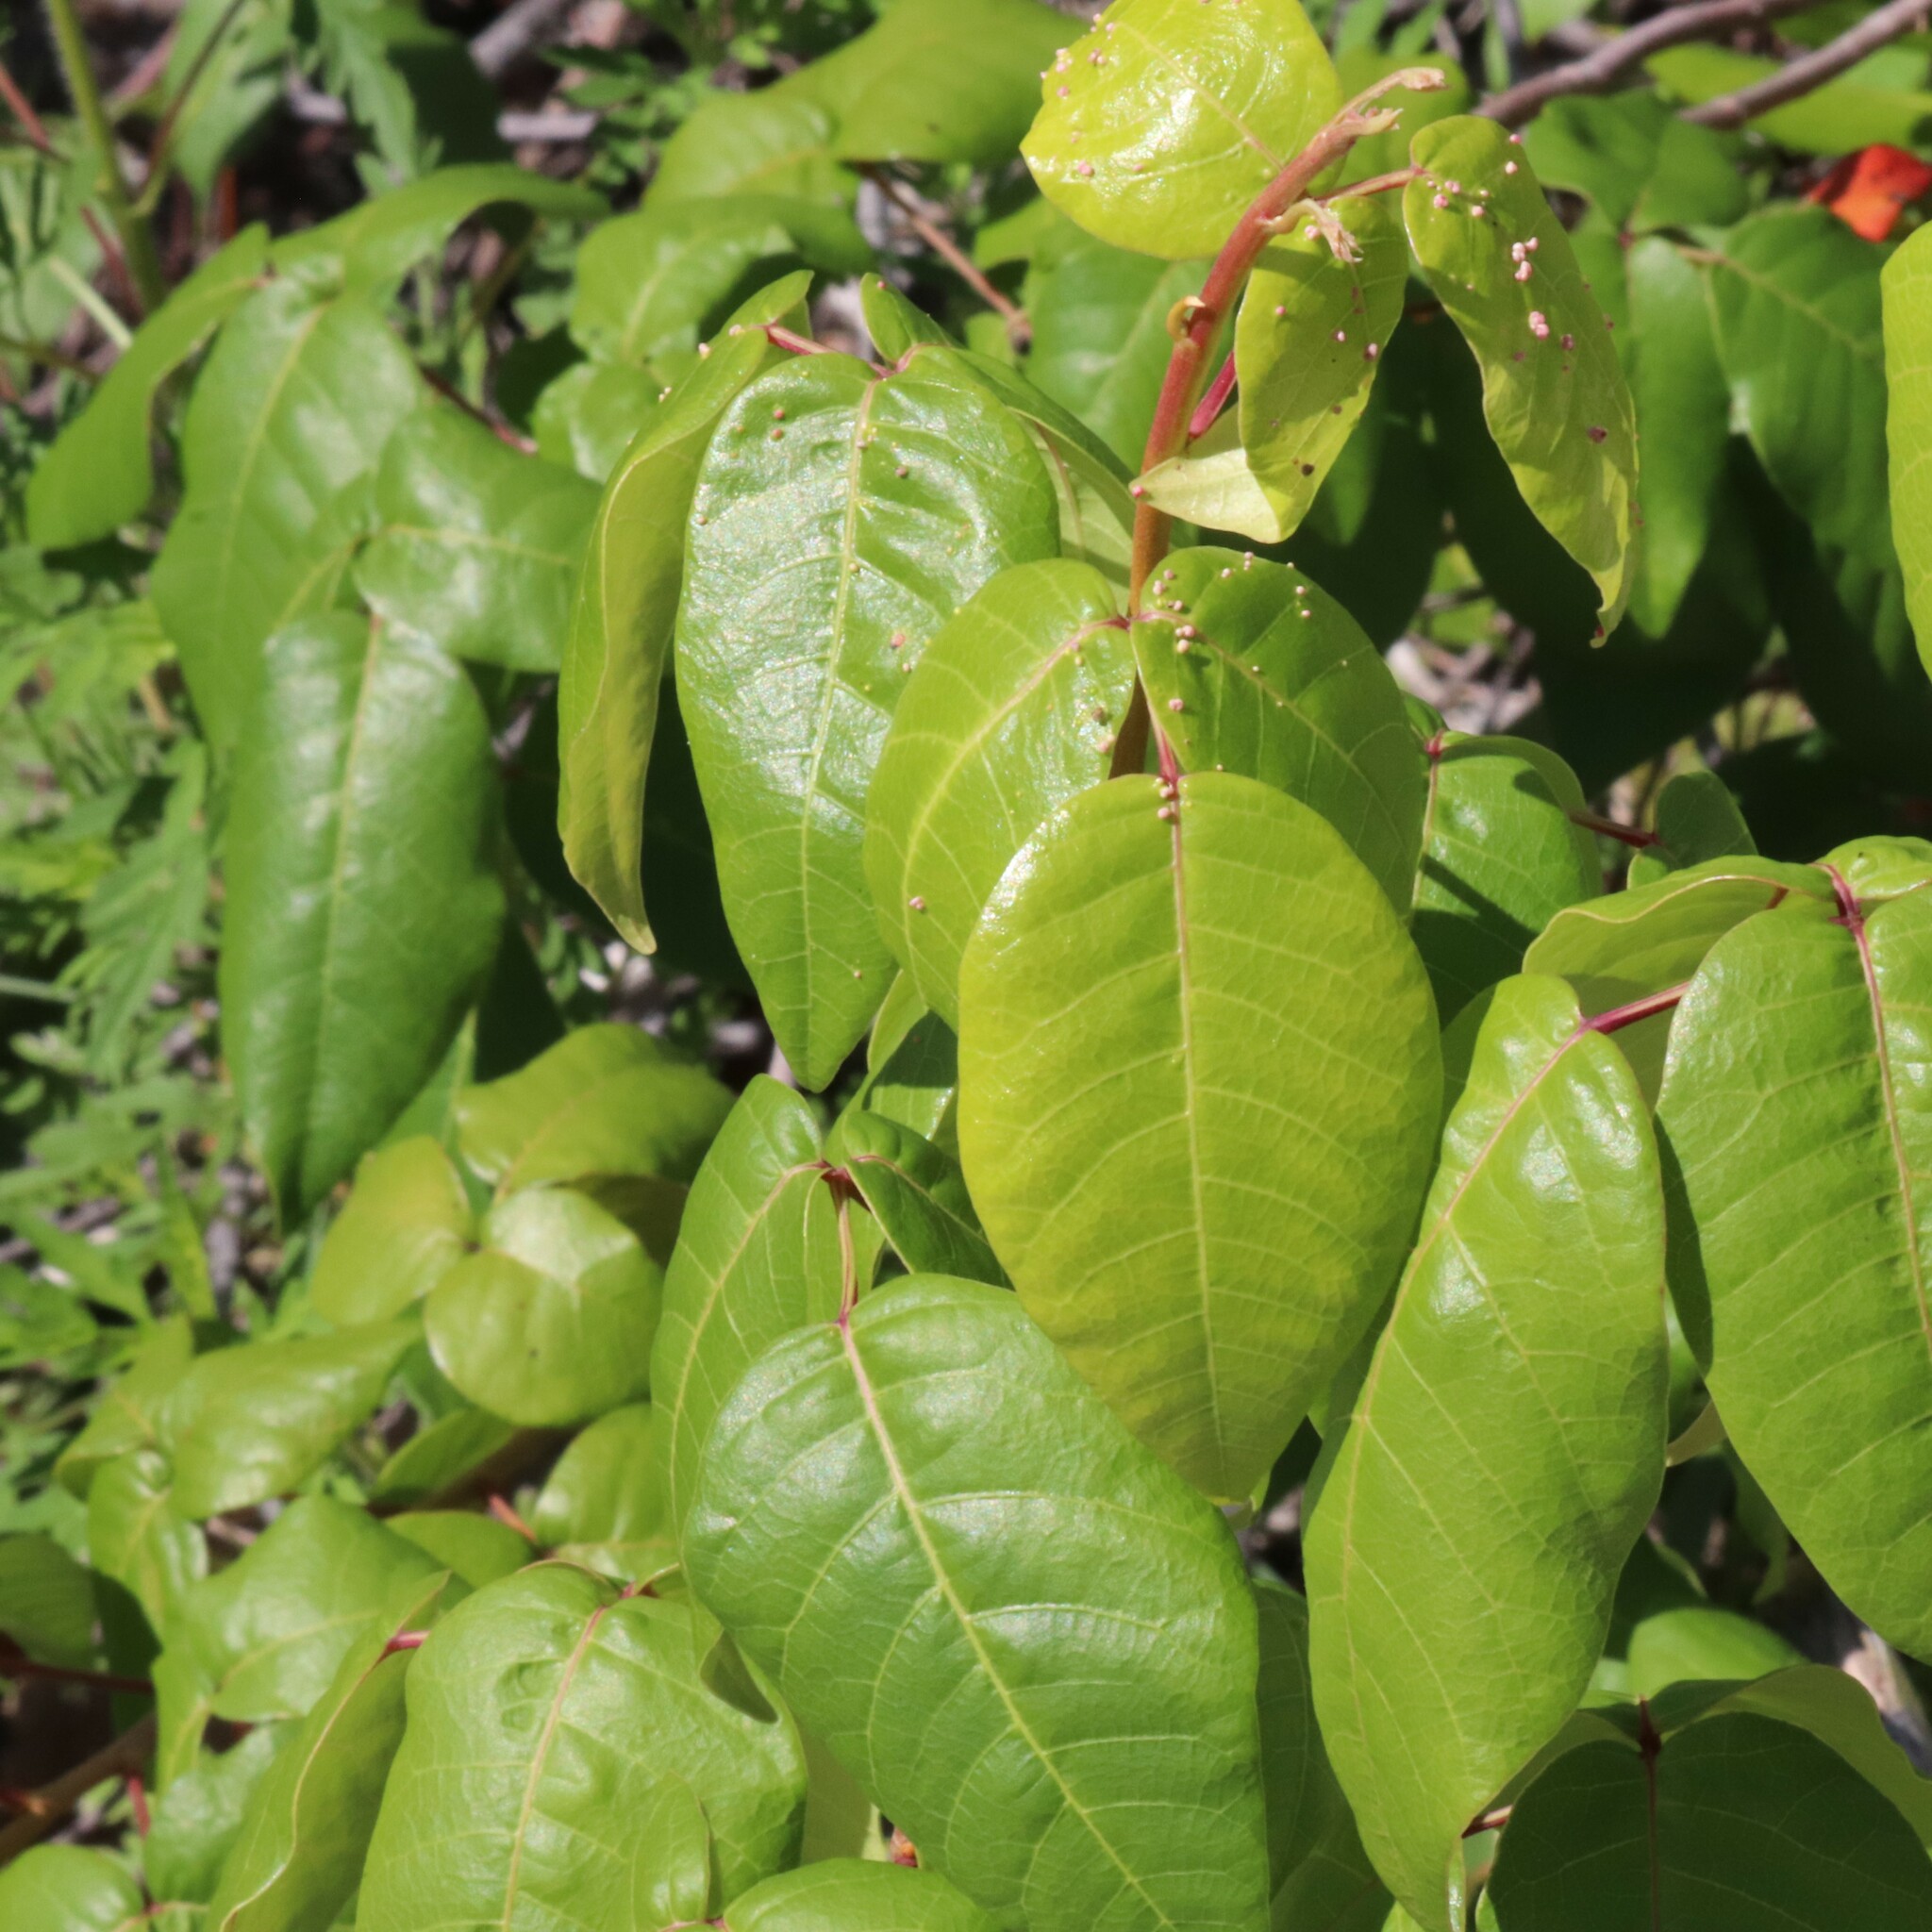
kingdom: Plantae
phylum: Tracheophyta
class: Magnoliopsida
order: Sapindales
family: Anacardiaceae
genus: Toxicodendron
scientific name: Toxicodendron radicans
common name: Poison ivy
